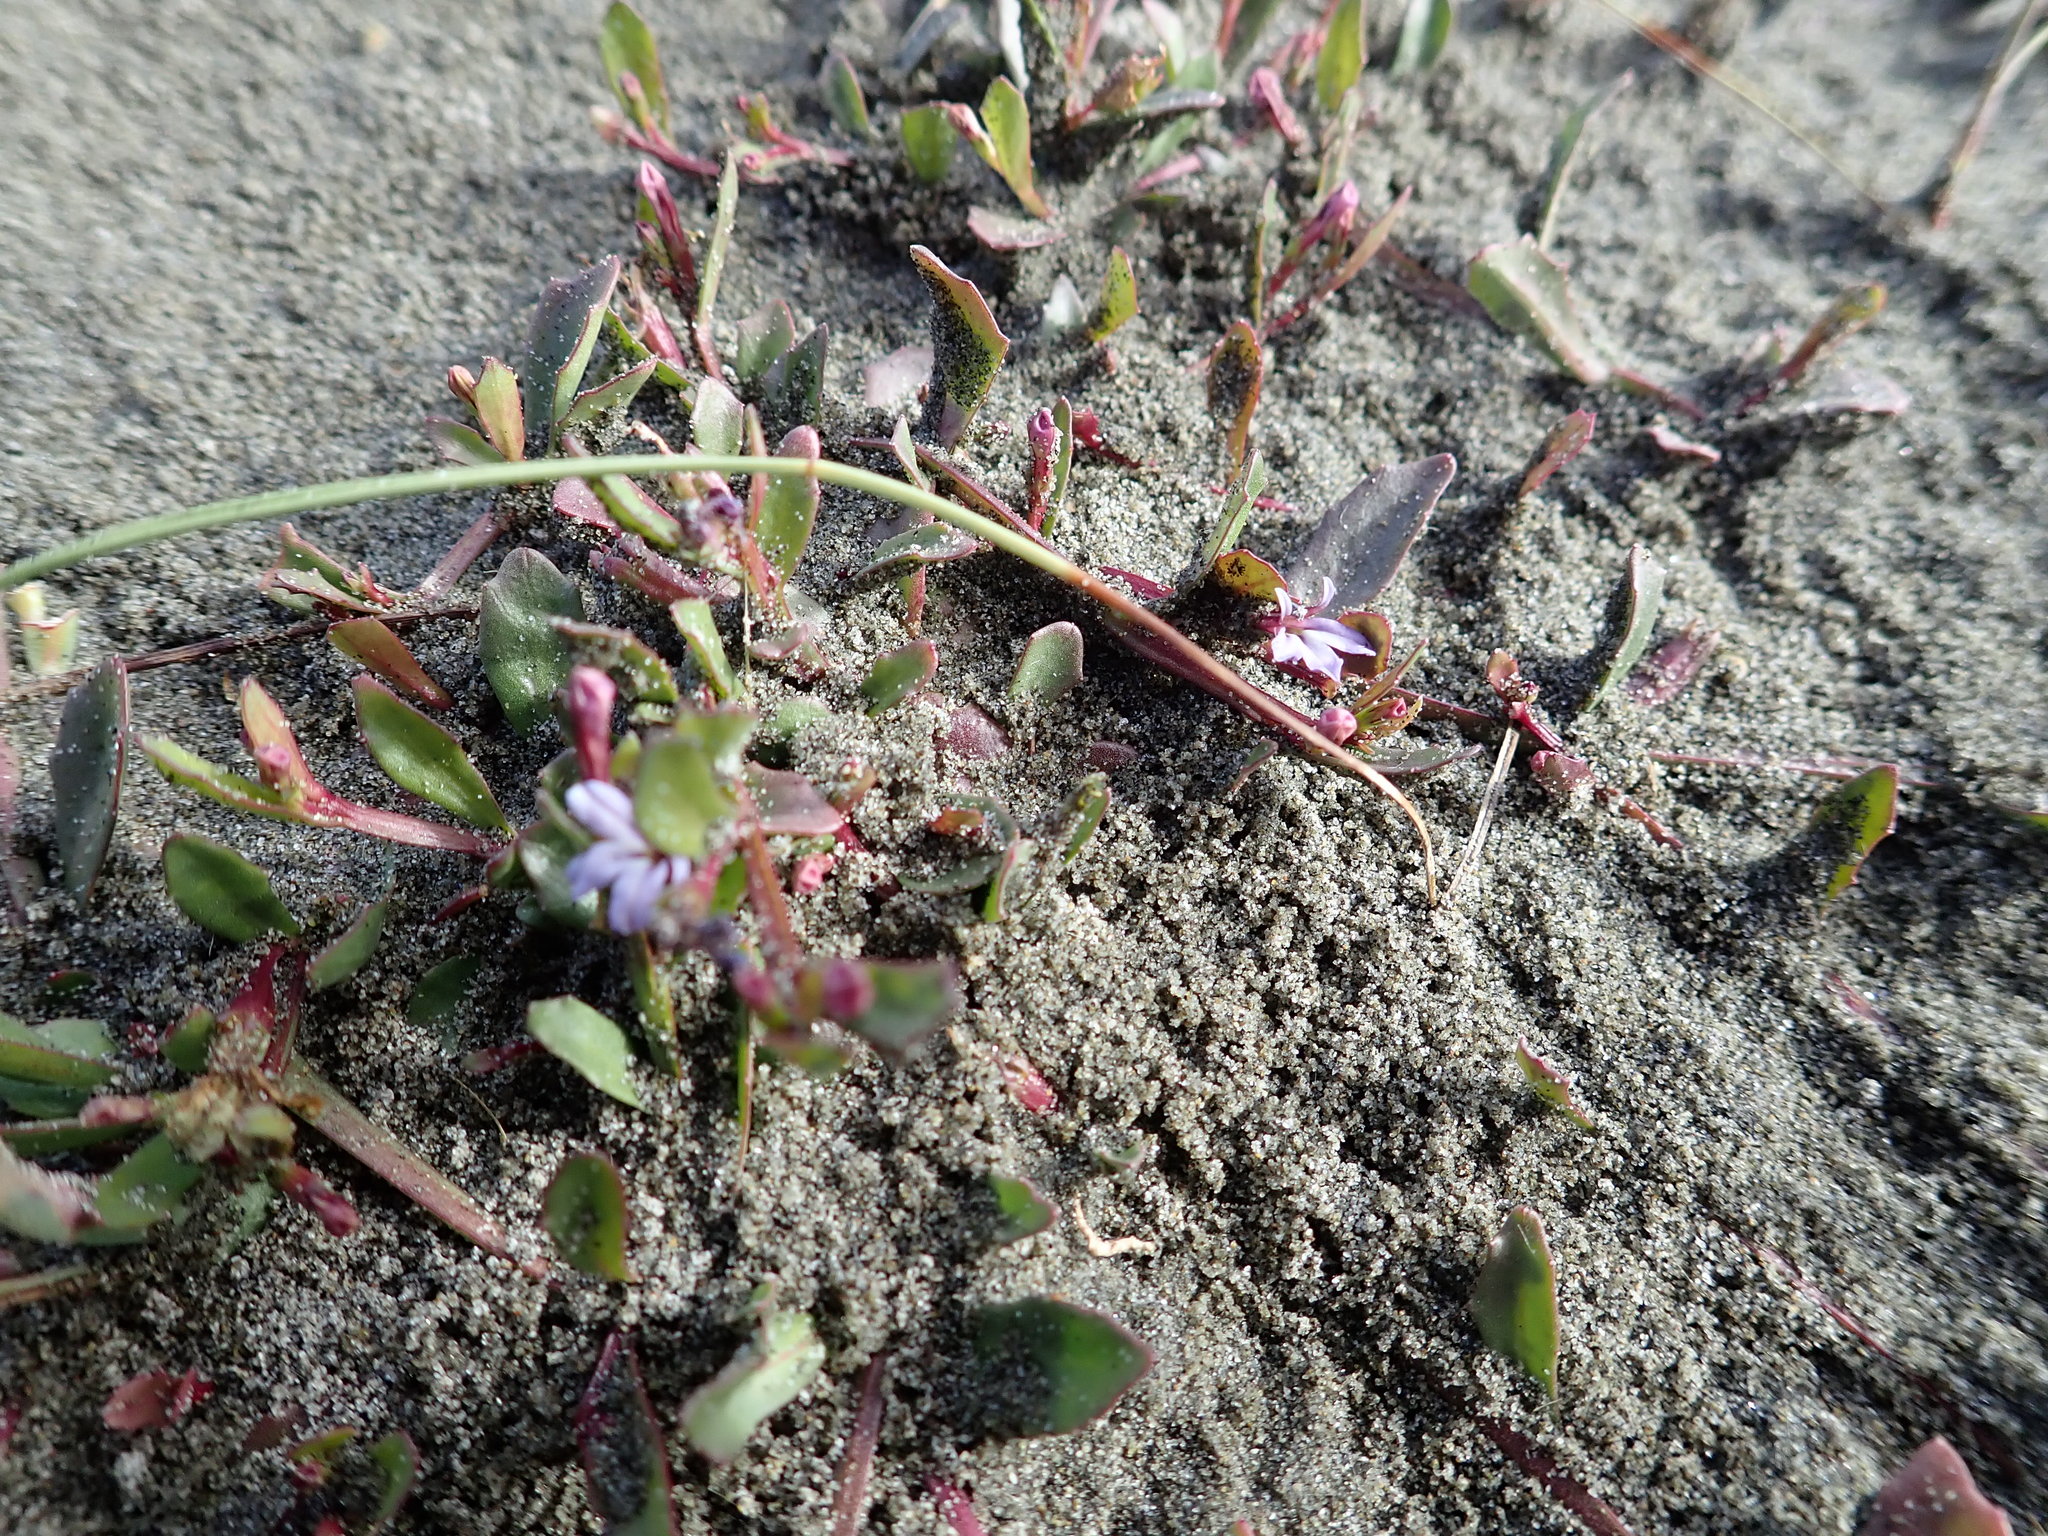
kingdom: Plantae
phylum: Tracheophyta
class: Magnoliopsida
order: Asterales
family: Campanulaceae
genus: Lobelia
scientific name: Lobelia anceps
